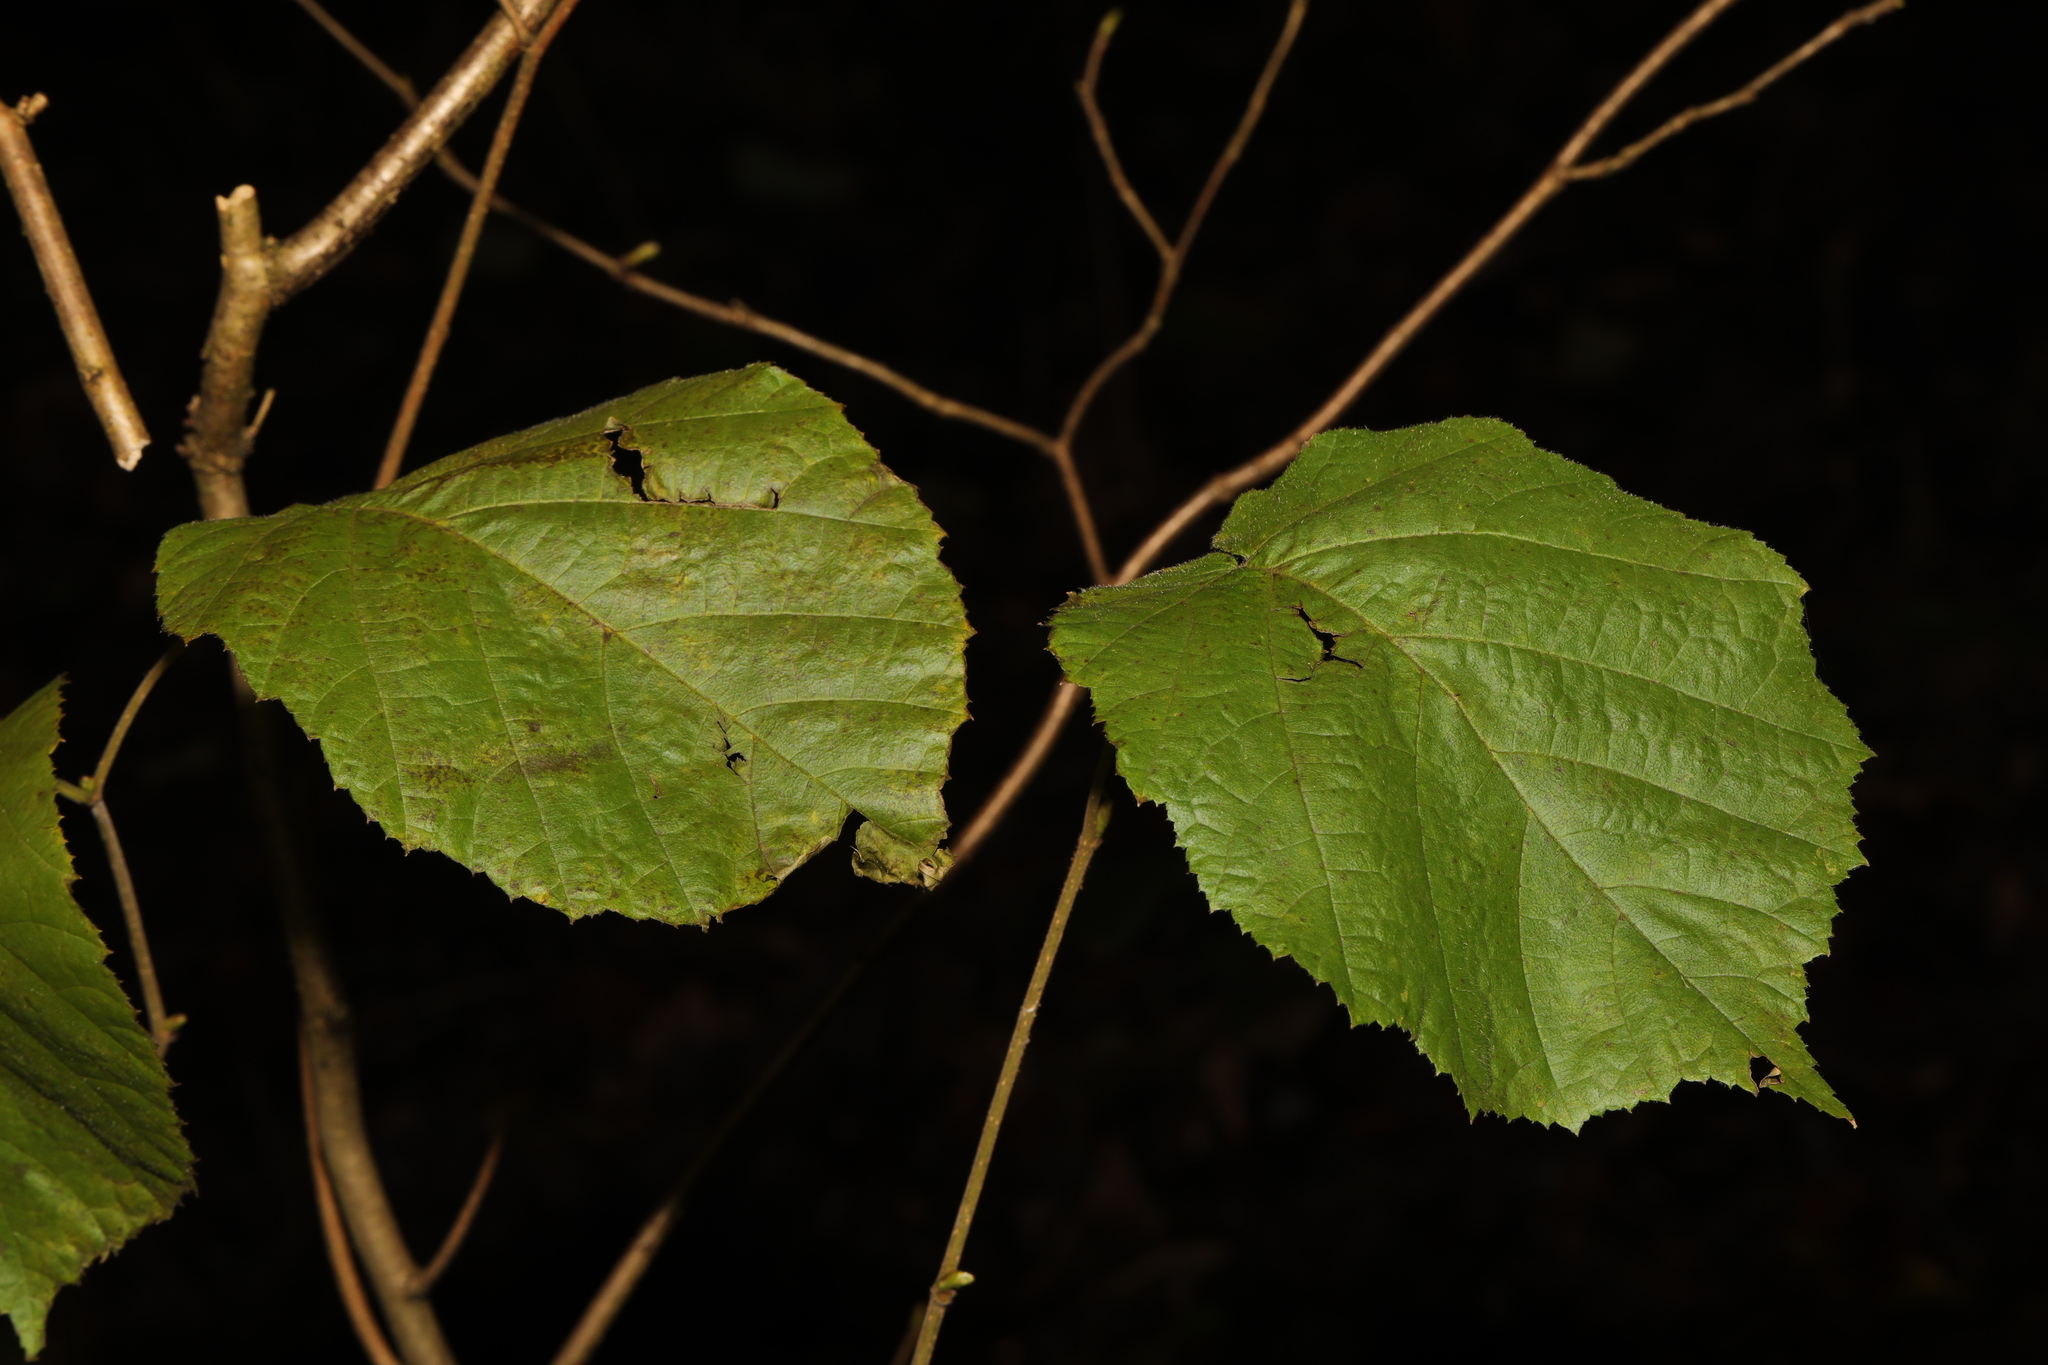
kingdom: Plantae
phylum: Tracheophyta
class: Magnoliopsida
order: Fagales
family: Betulaceae
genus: Corylus
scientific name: Corylus avellana
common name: European hazel
